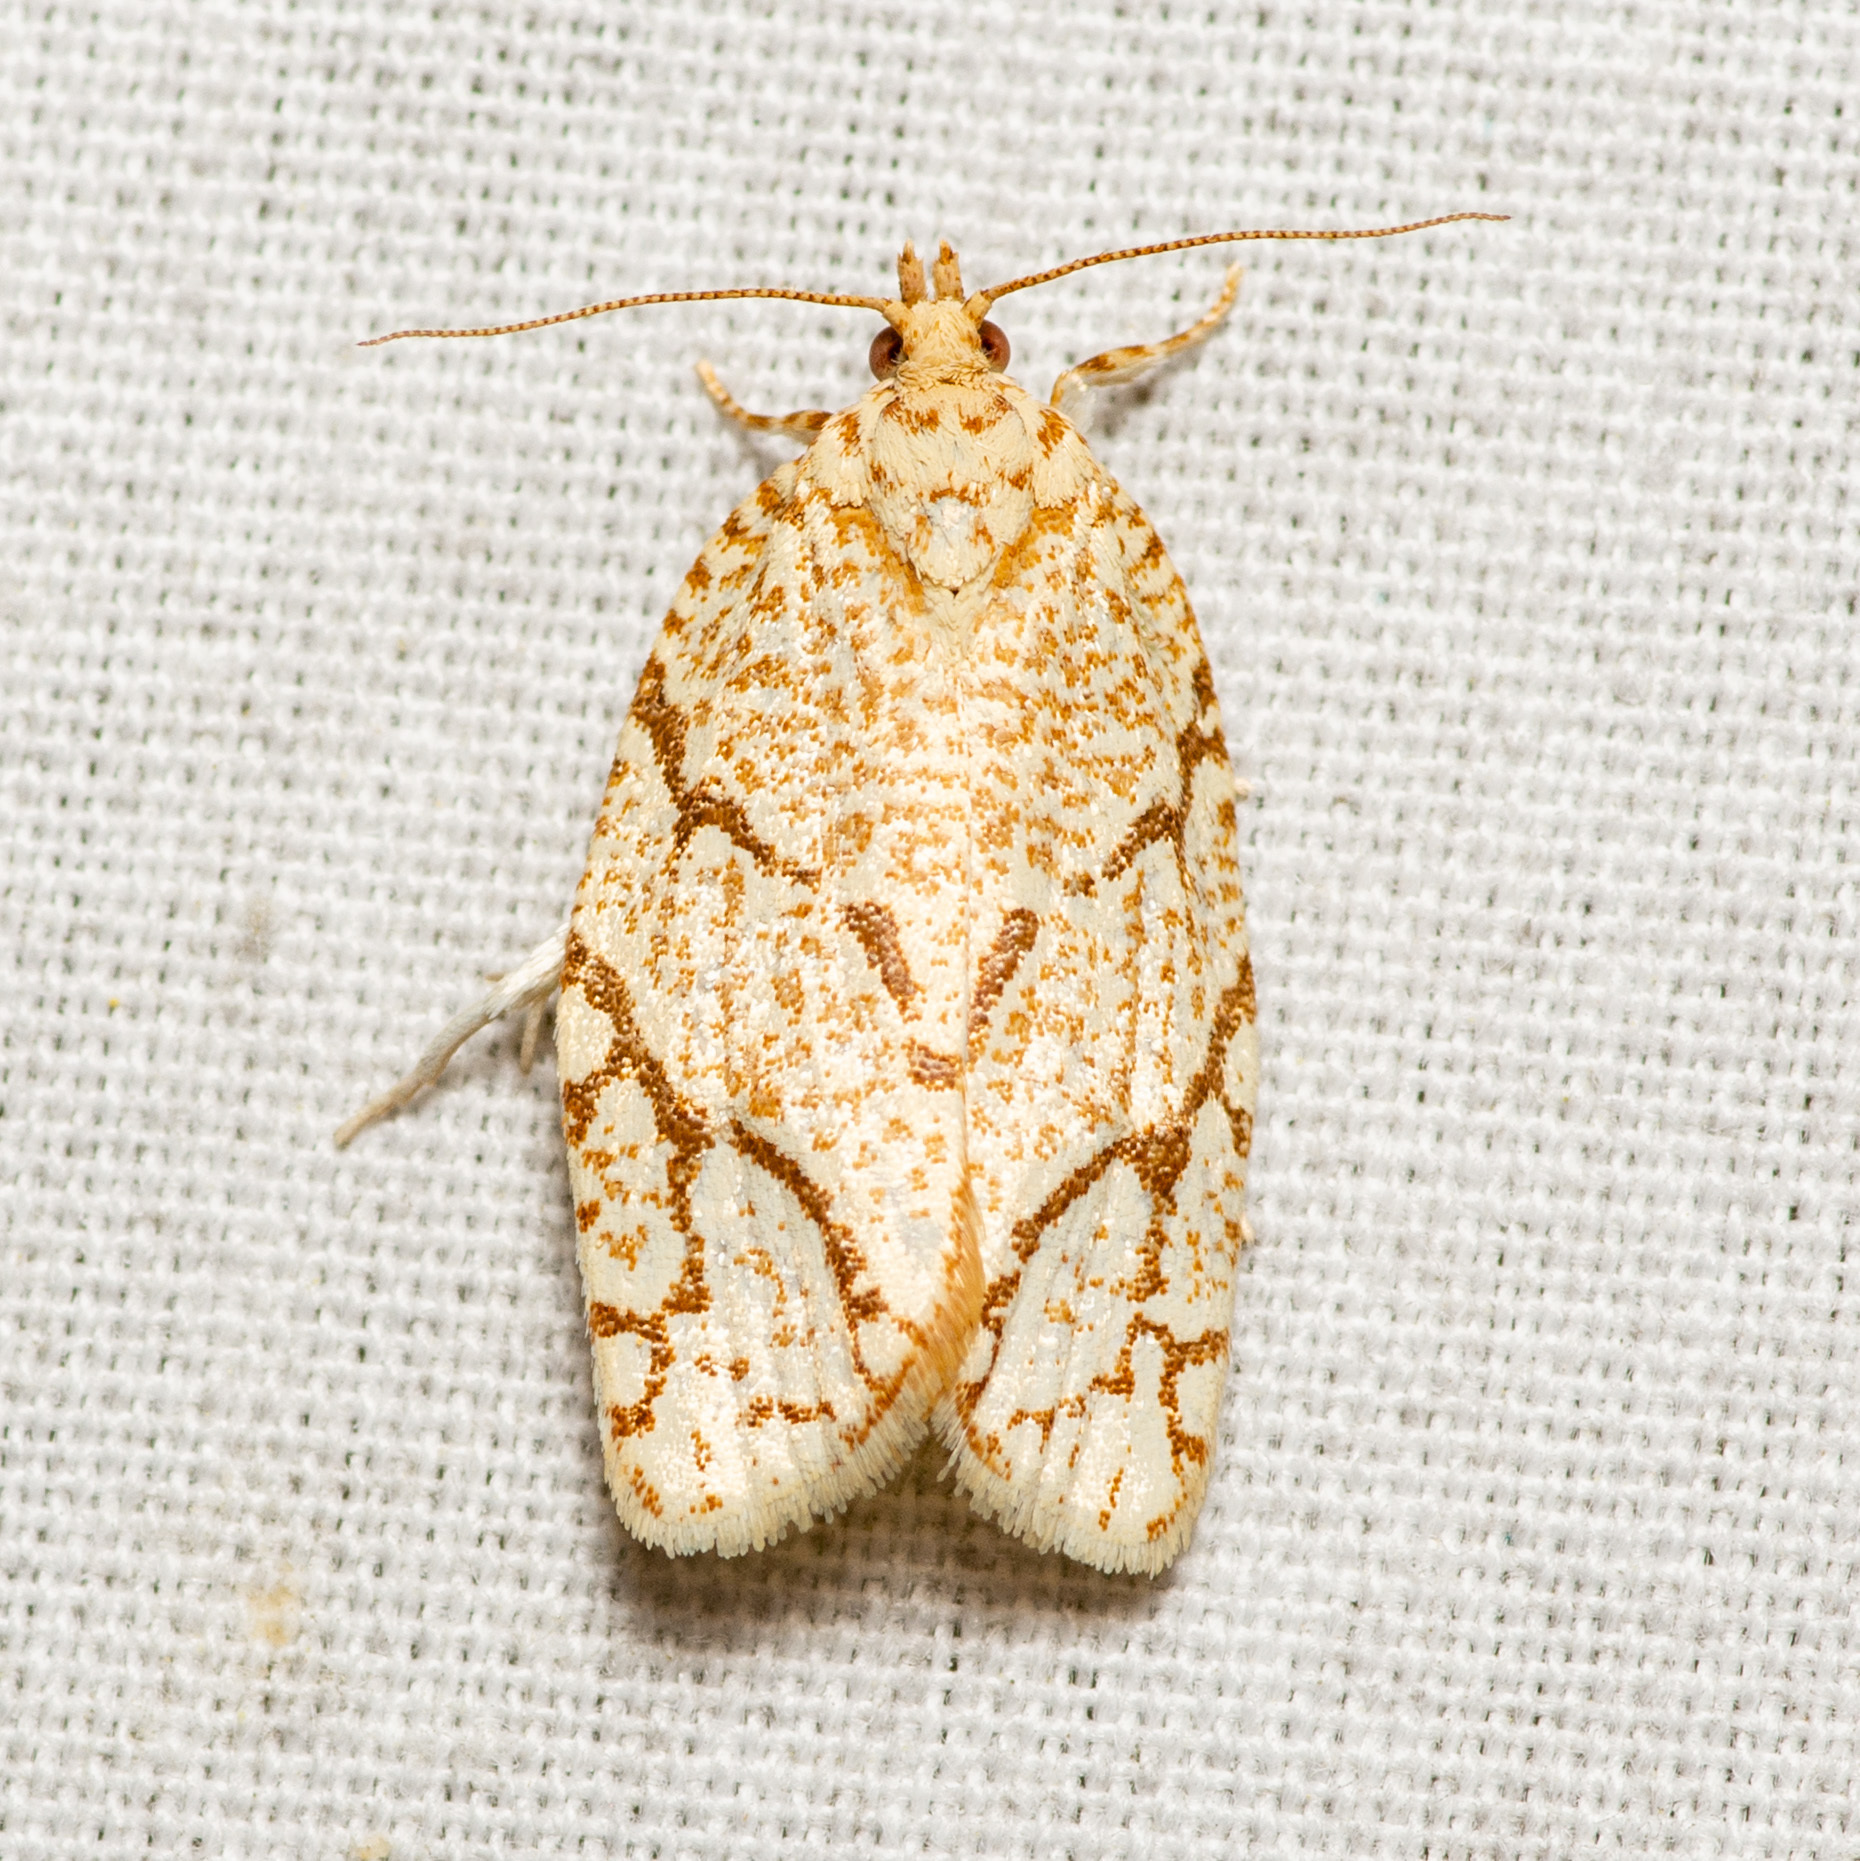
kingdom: Animalia
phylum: Arthropoda
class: Insecta
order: Lepidoptera
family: Tortricidae
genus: Argyrotaenia
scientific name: Argyrotaenia quercifoliana
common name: Yellow-winged oak leafroller moth
